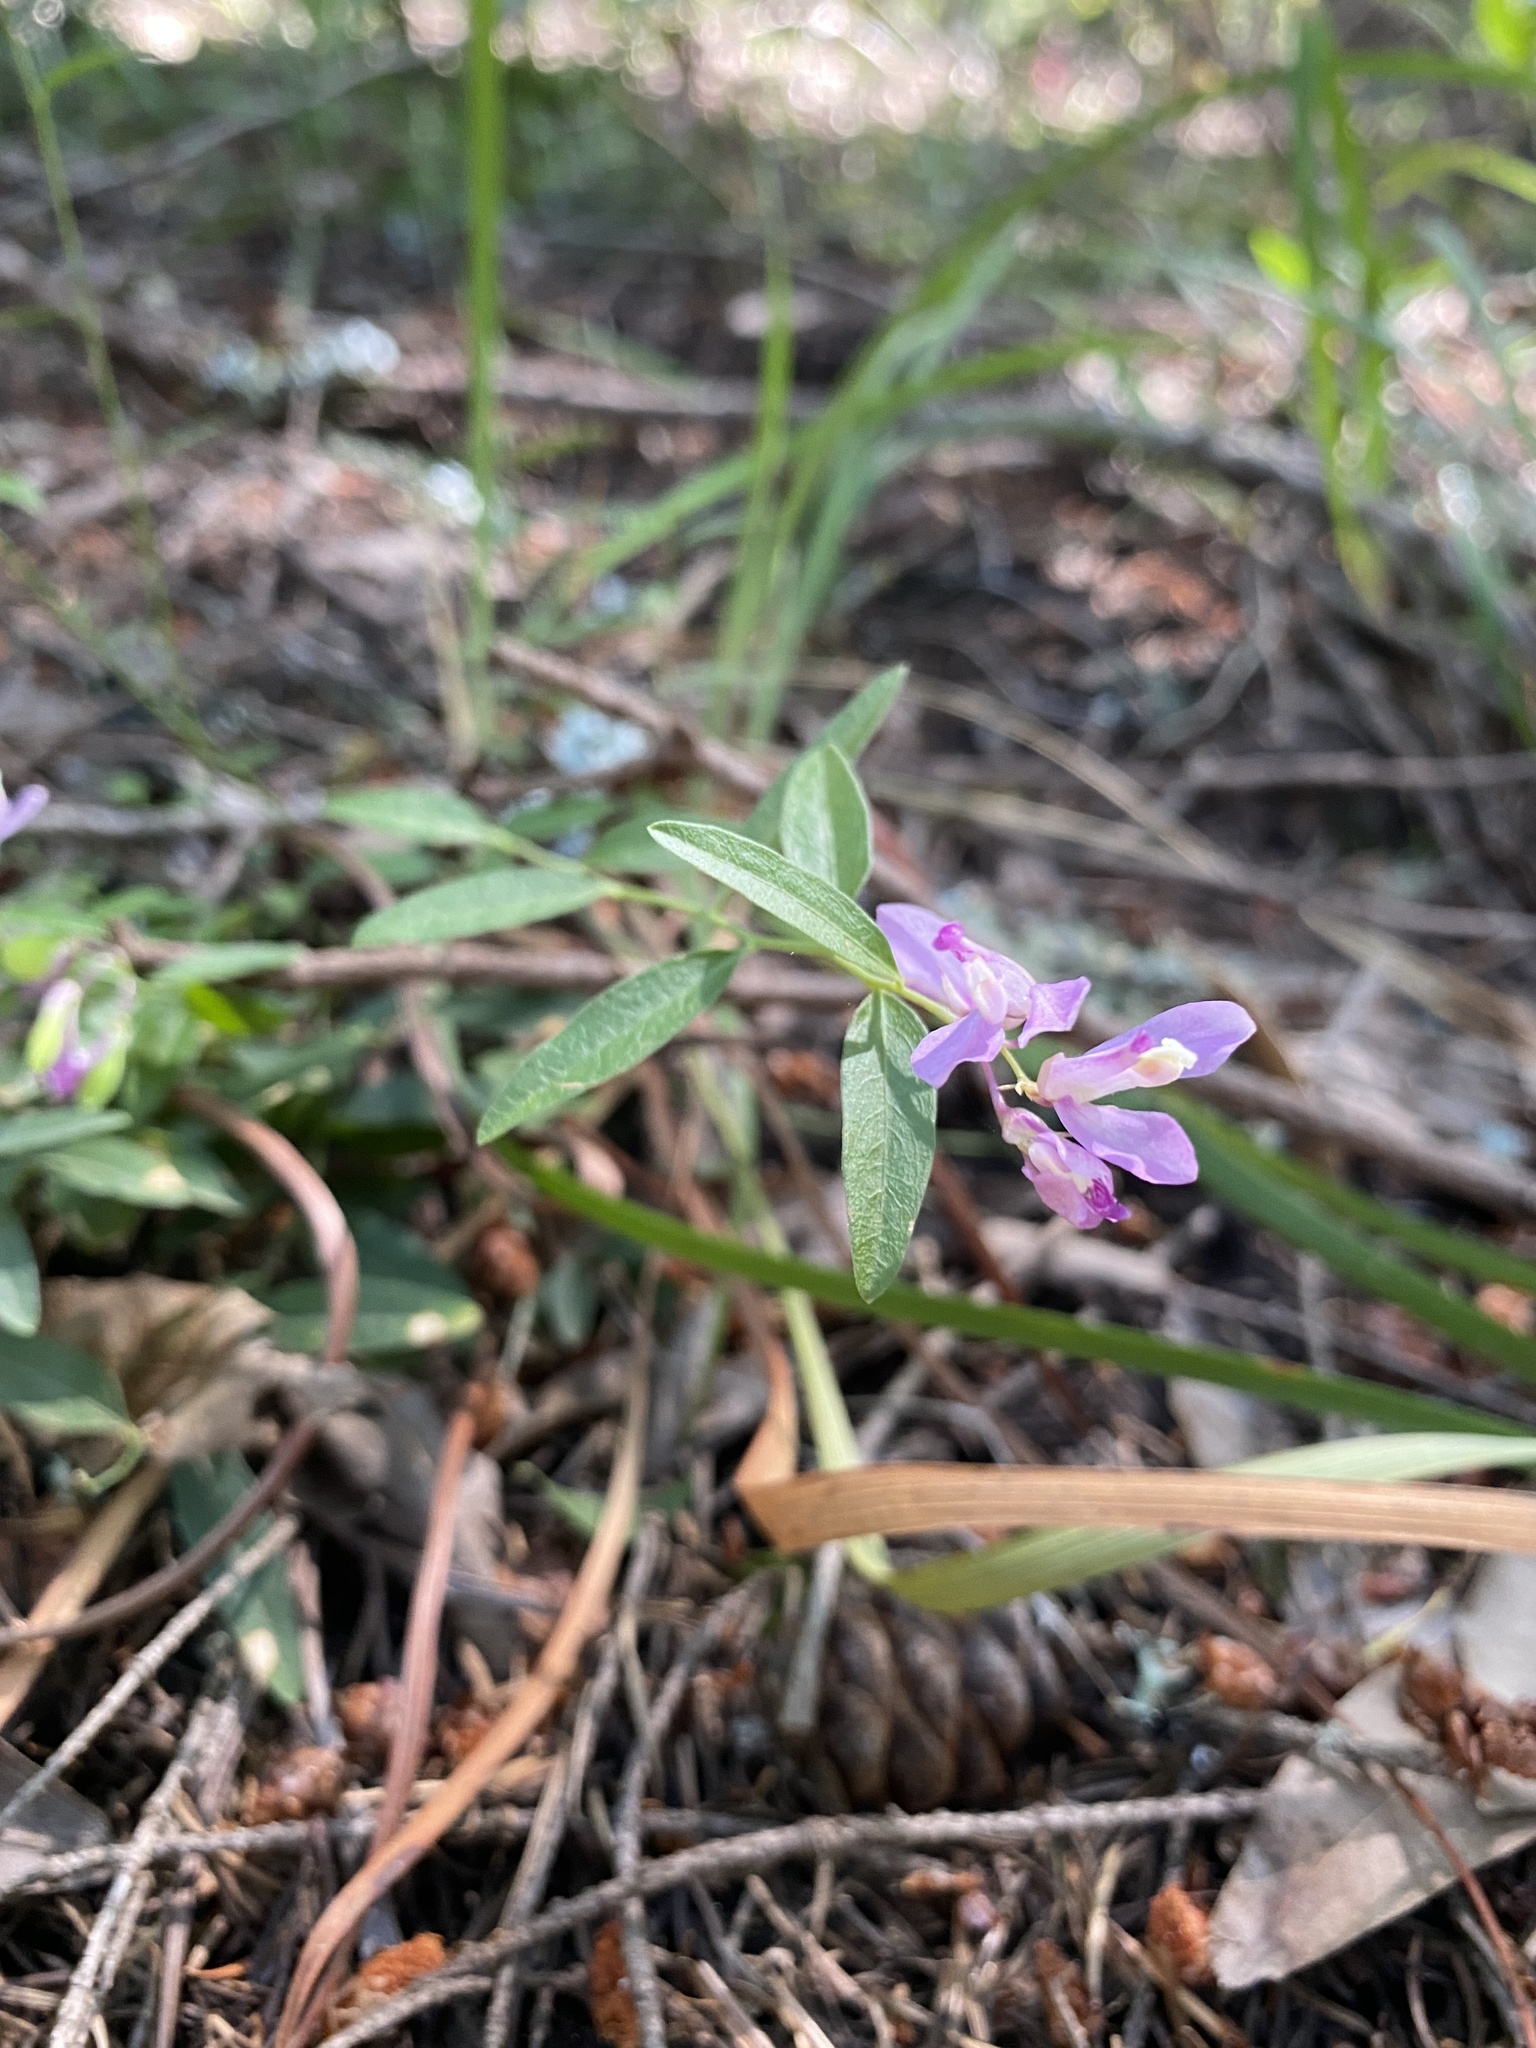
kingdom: Plantae
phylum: Tracheophyta
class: Magnoliopsida
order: Fabales
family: Polygalaceae
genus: Rhinotropis
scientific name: Rhinotropis californica
